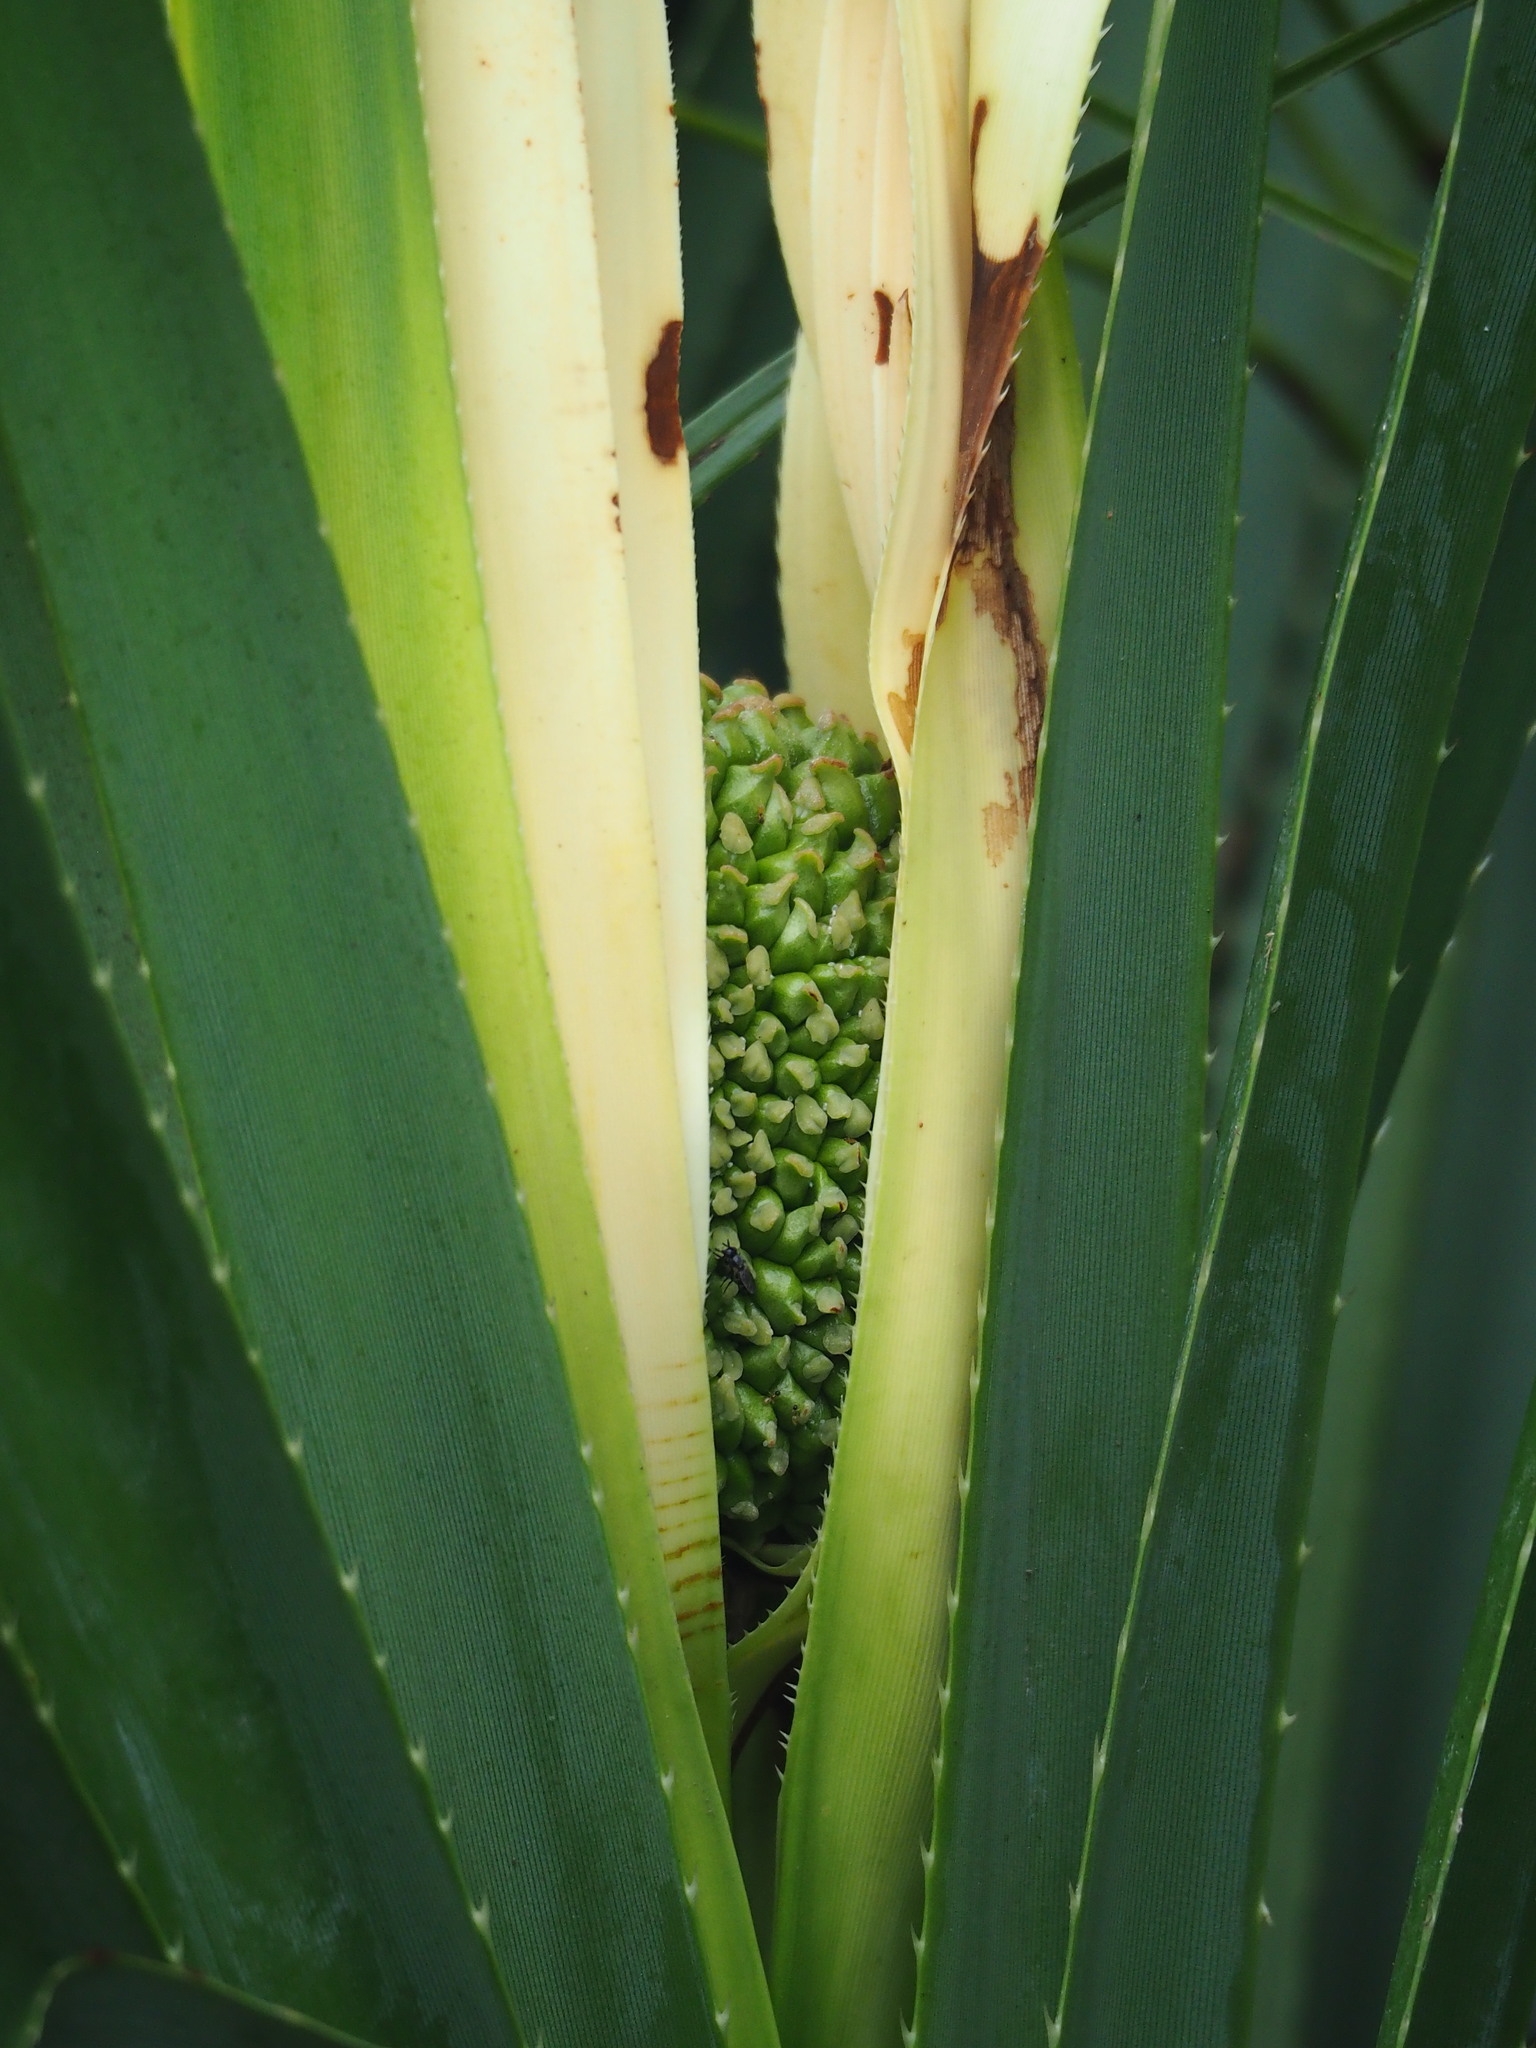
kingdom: Plantae
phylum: Tracheophyta
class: Liliopsida
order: Pandanales
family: Pandanaceae
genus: Pandanus
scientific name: Pandanus odorifer
